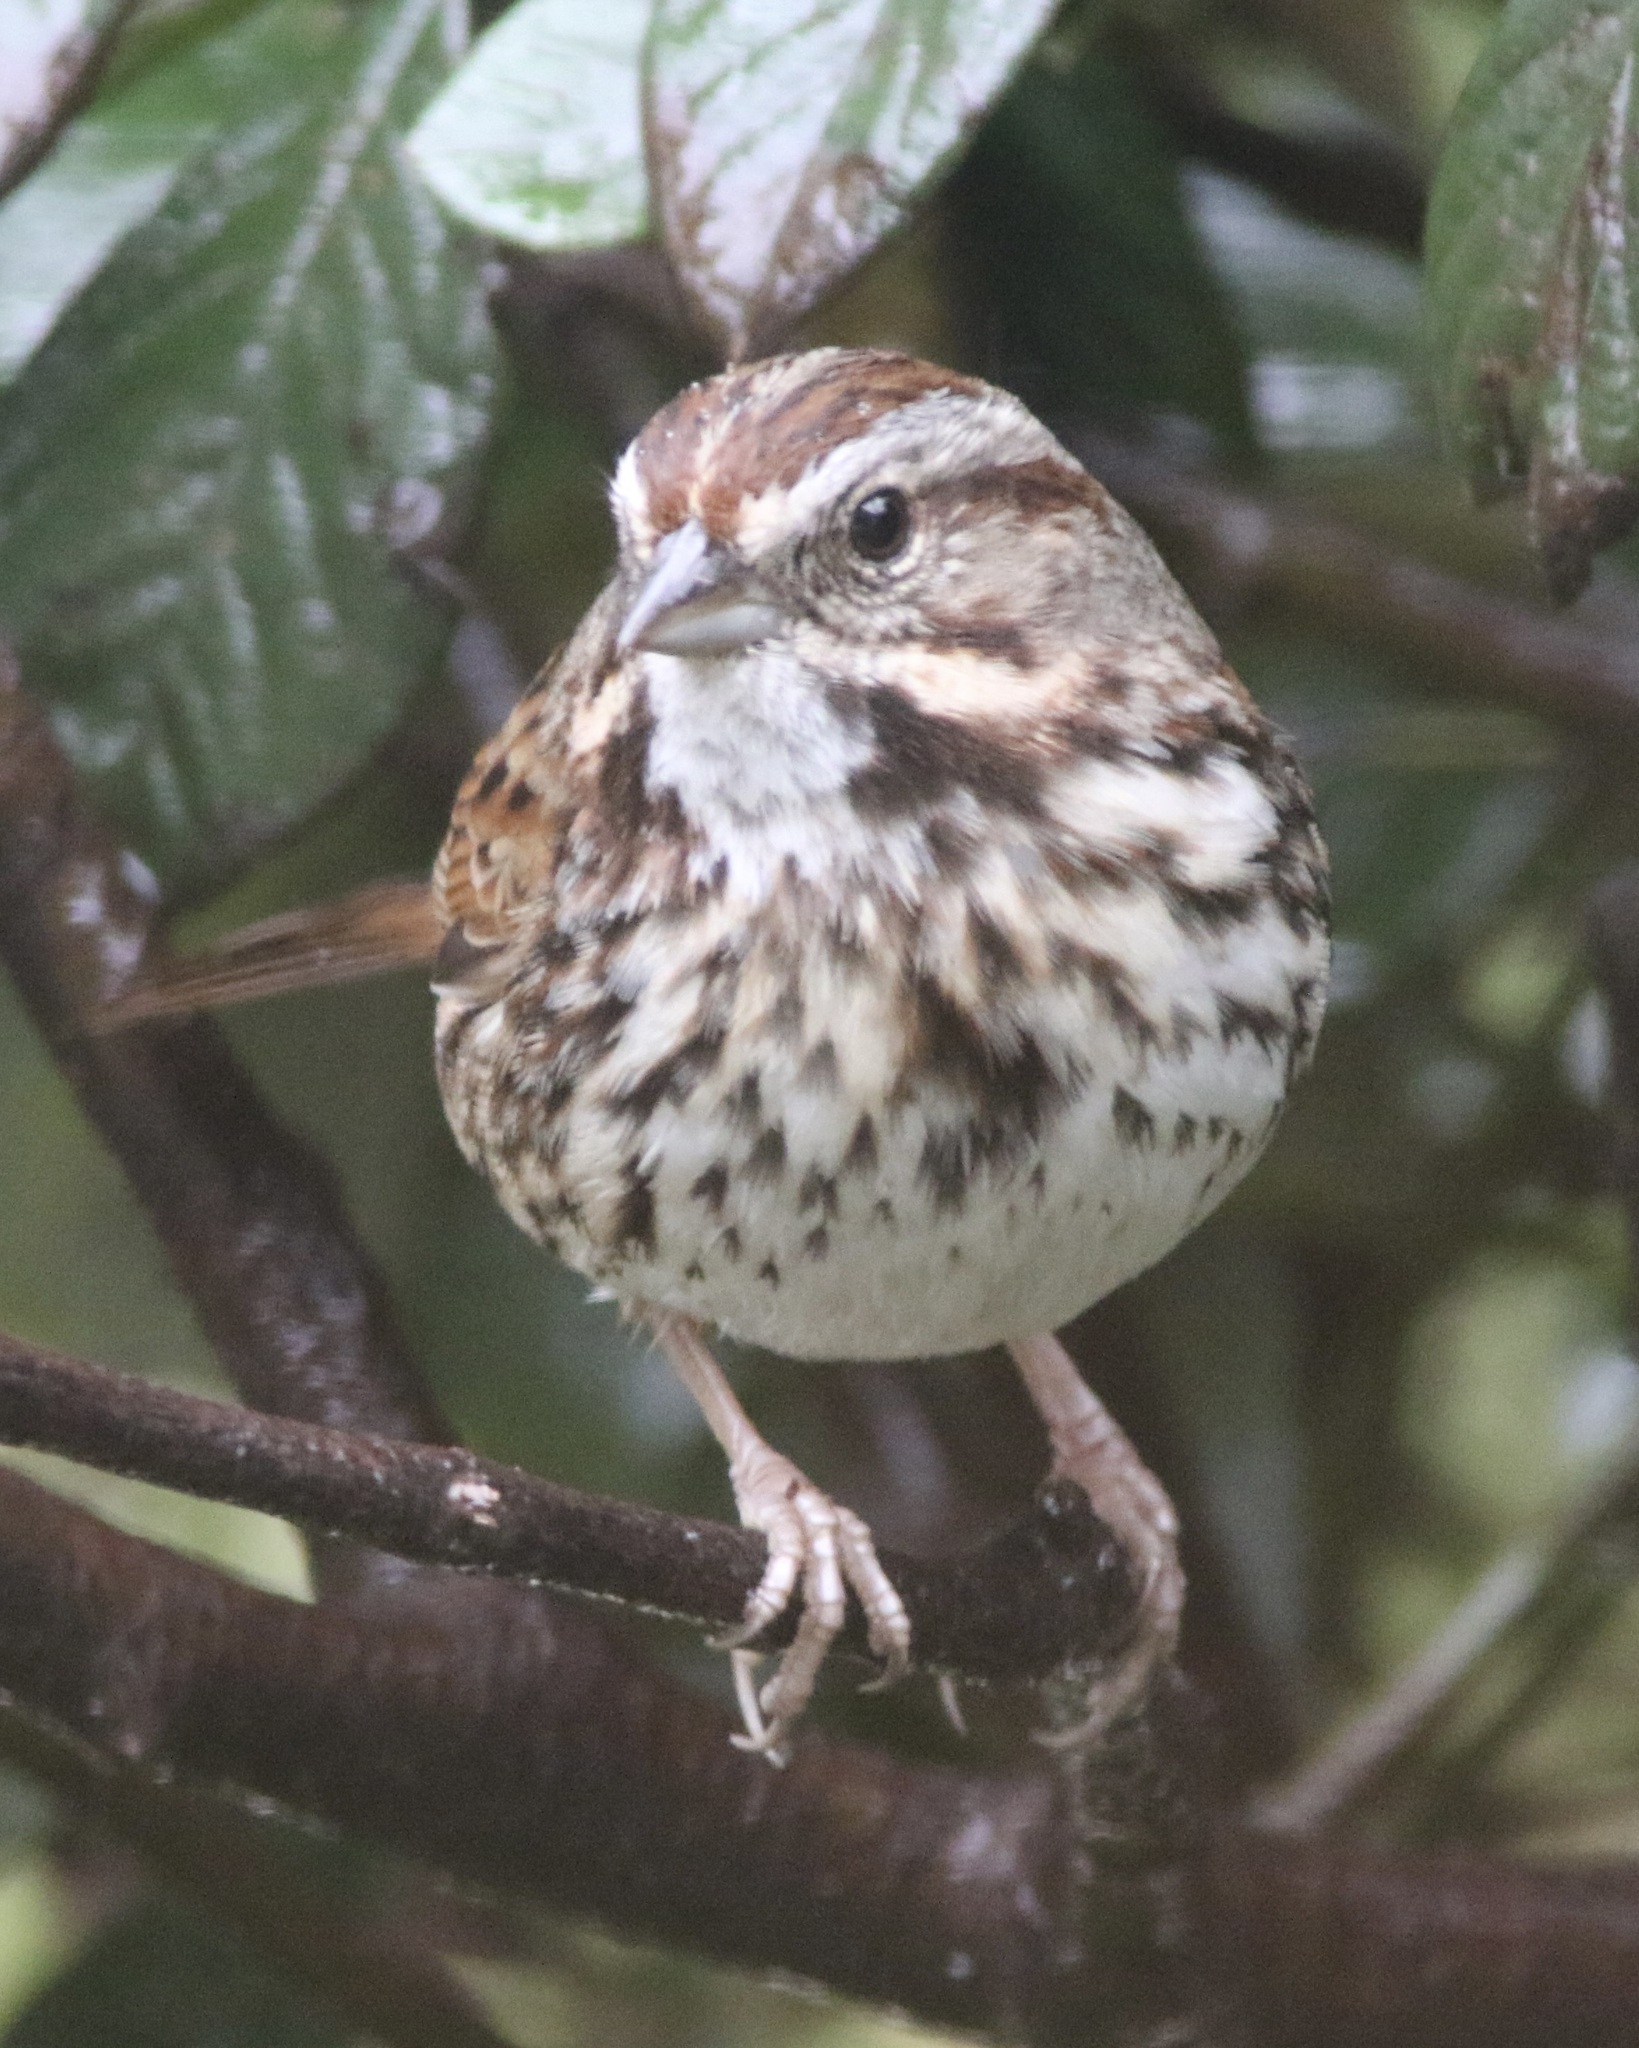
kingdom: Animalia
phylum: Chordata
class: Aves
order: Passeriformes
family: Passerellidae
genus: Melospiza
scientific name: Melospiza melodia
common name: Song sparrow
